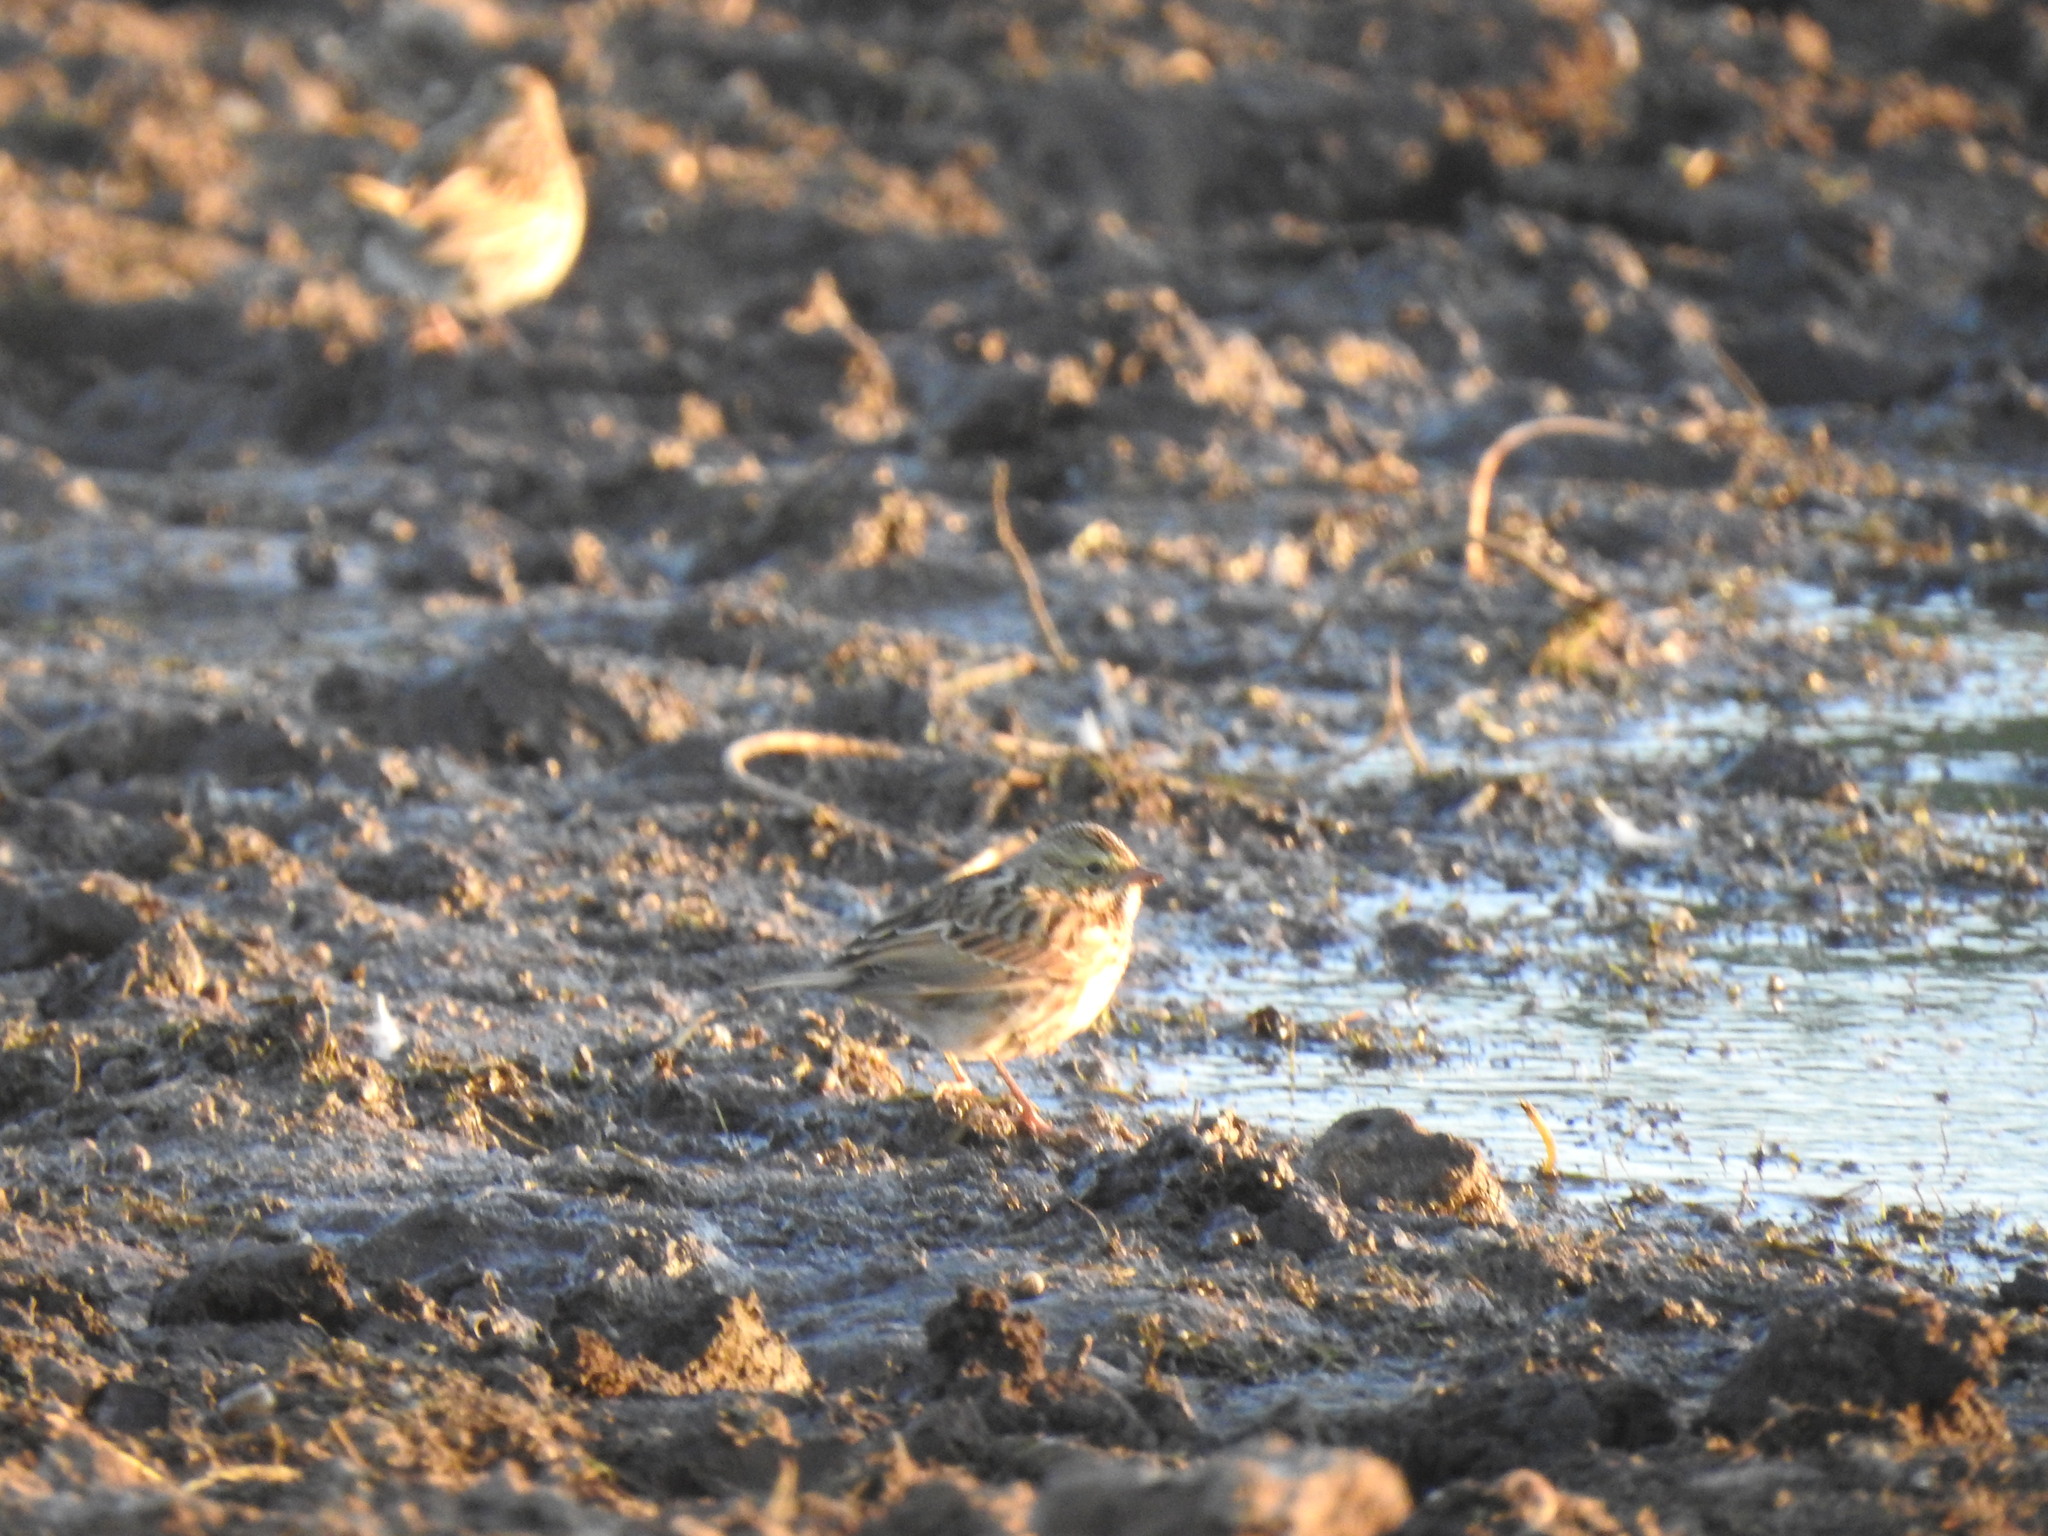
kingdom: Animalia
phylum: Chordata
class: Aves
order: Passeriformes
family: Passerellidae
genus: Passerculus
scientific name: Passerculus sandwichensis
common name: Savannah sparrow
